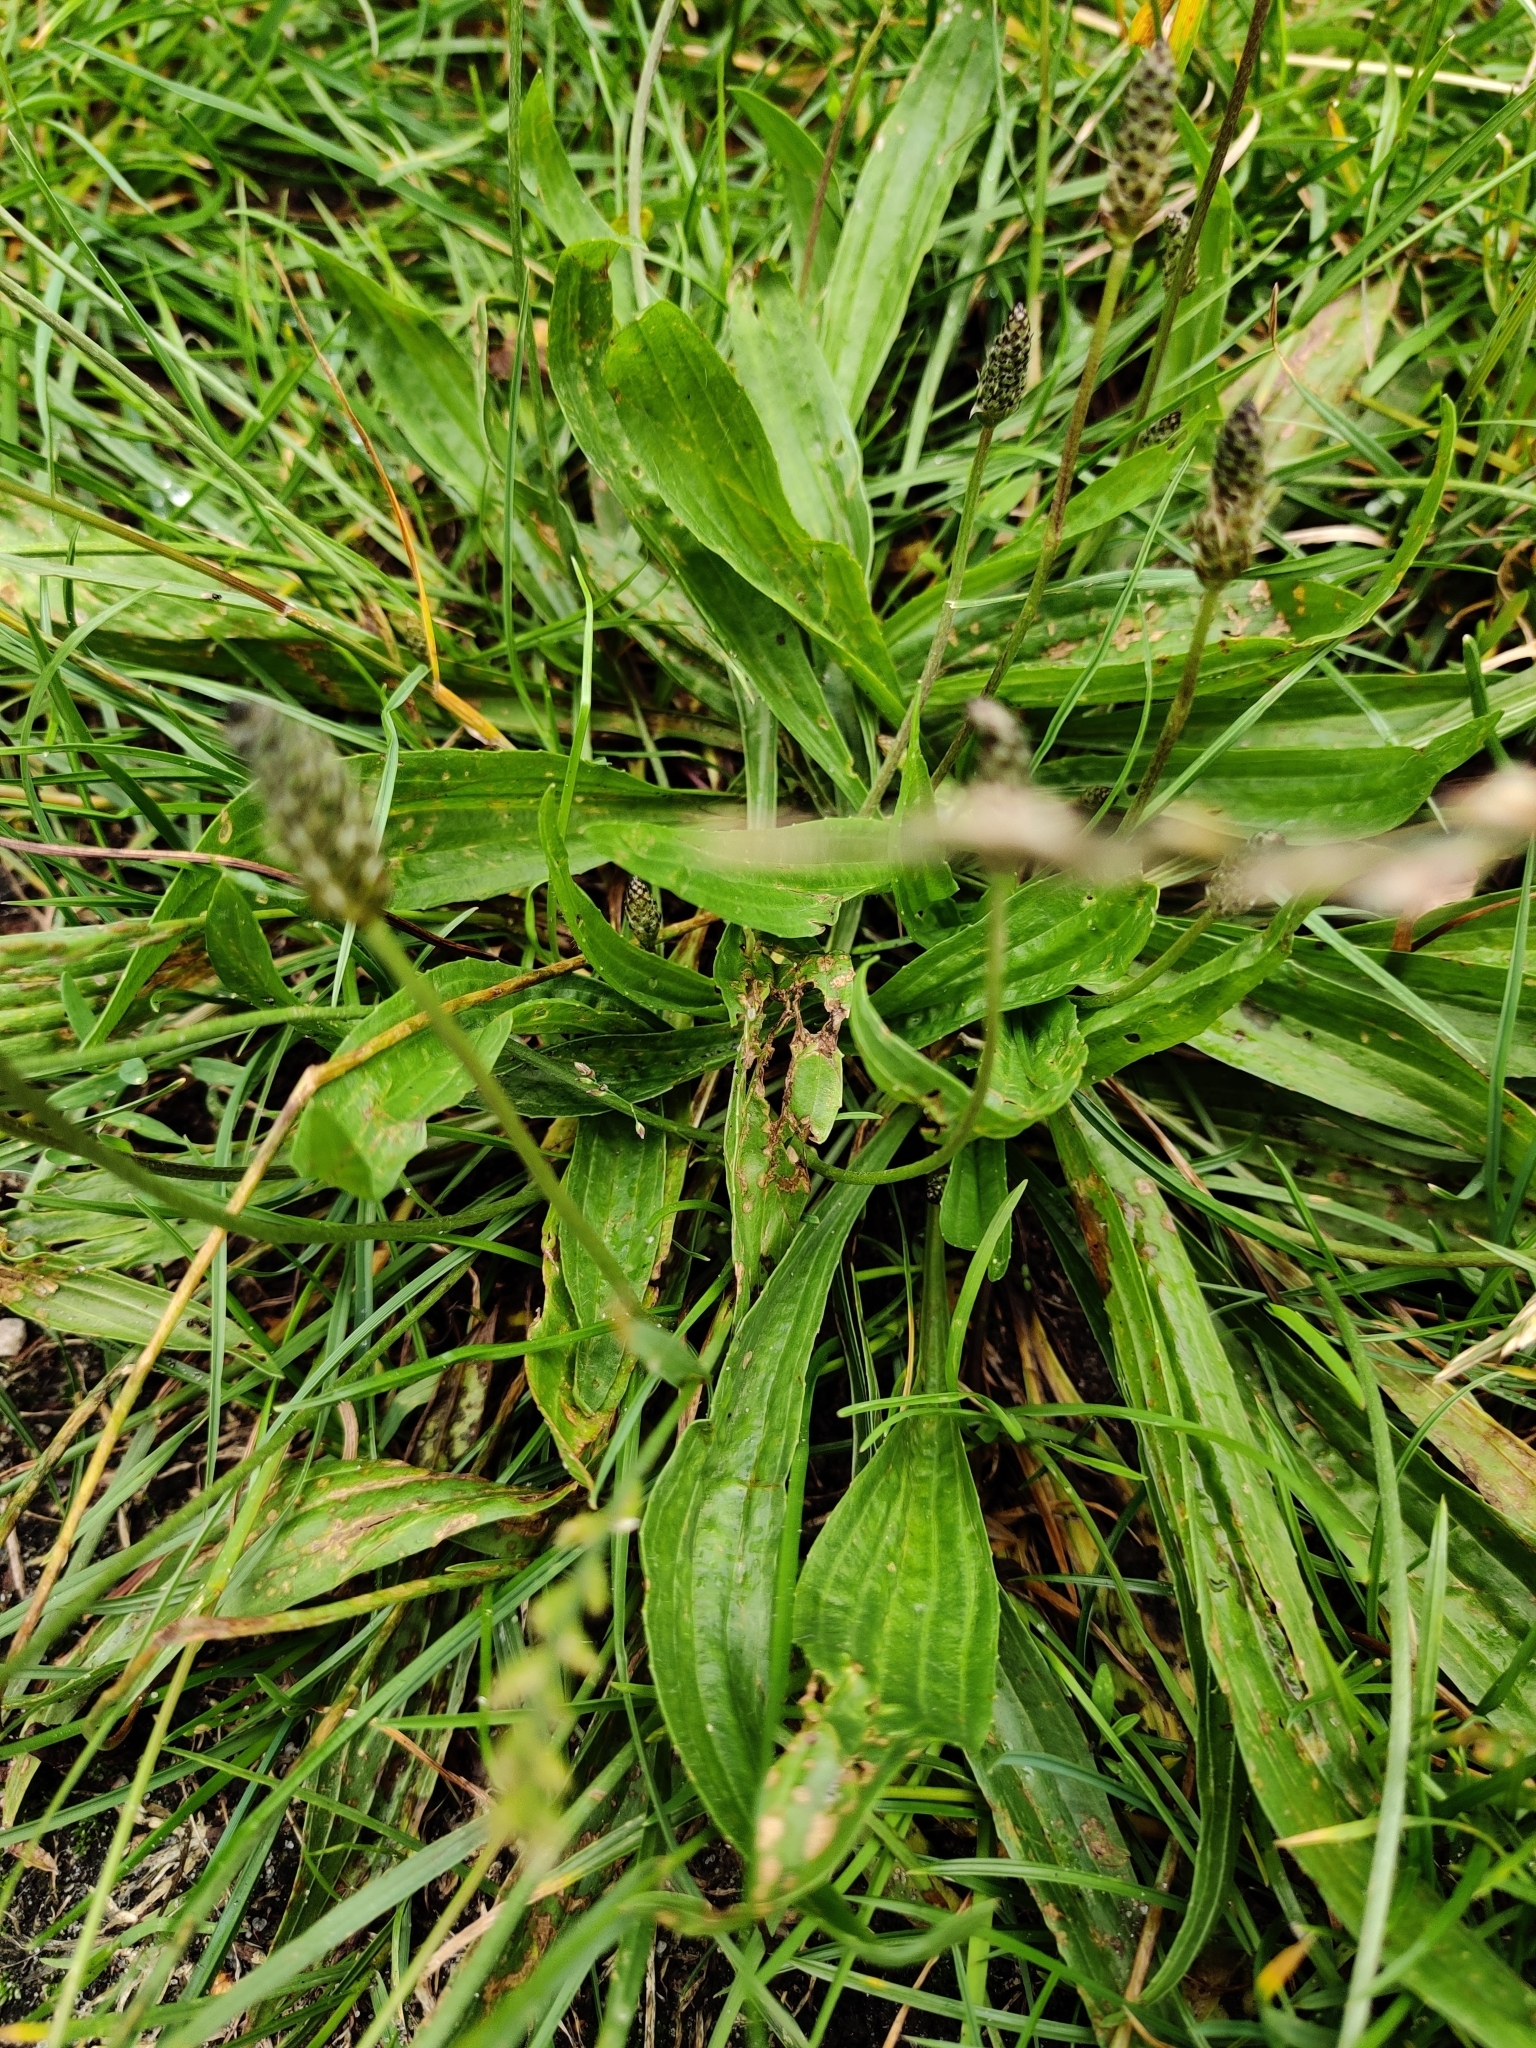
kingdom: Plantae
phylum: Tracheophyta
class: Magnoliopsida
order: Lamiales
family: Plantaginaceae
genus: Plantago
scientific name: Plantago lanceolata
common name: Ribwort plantain
